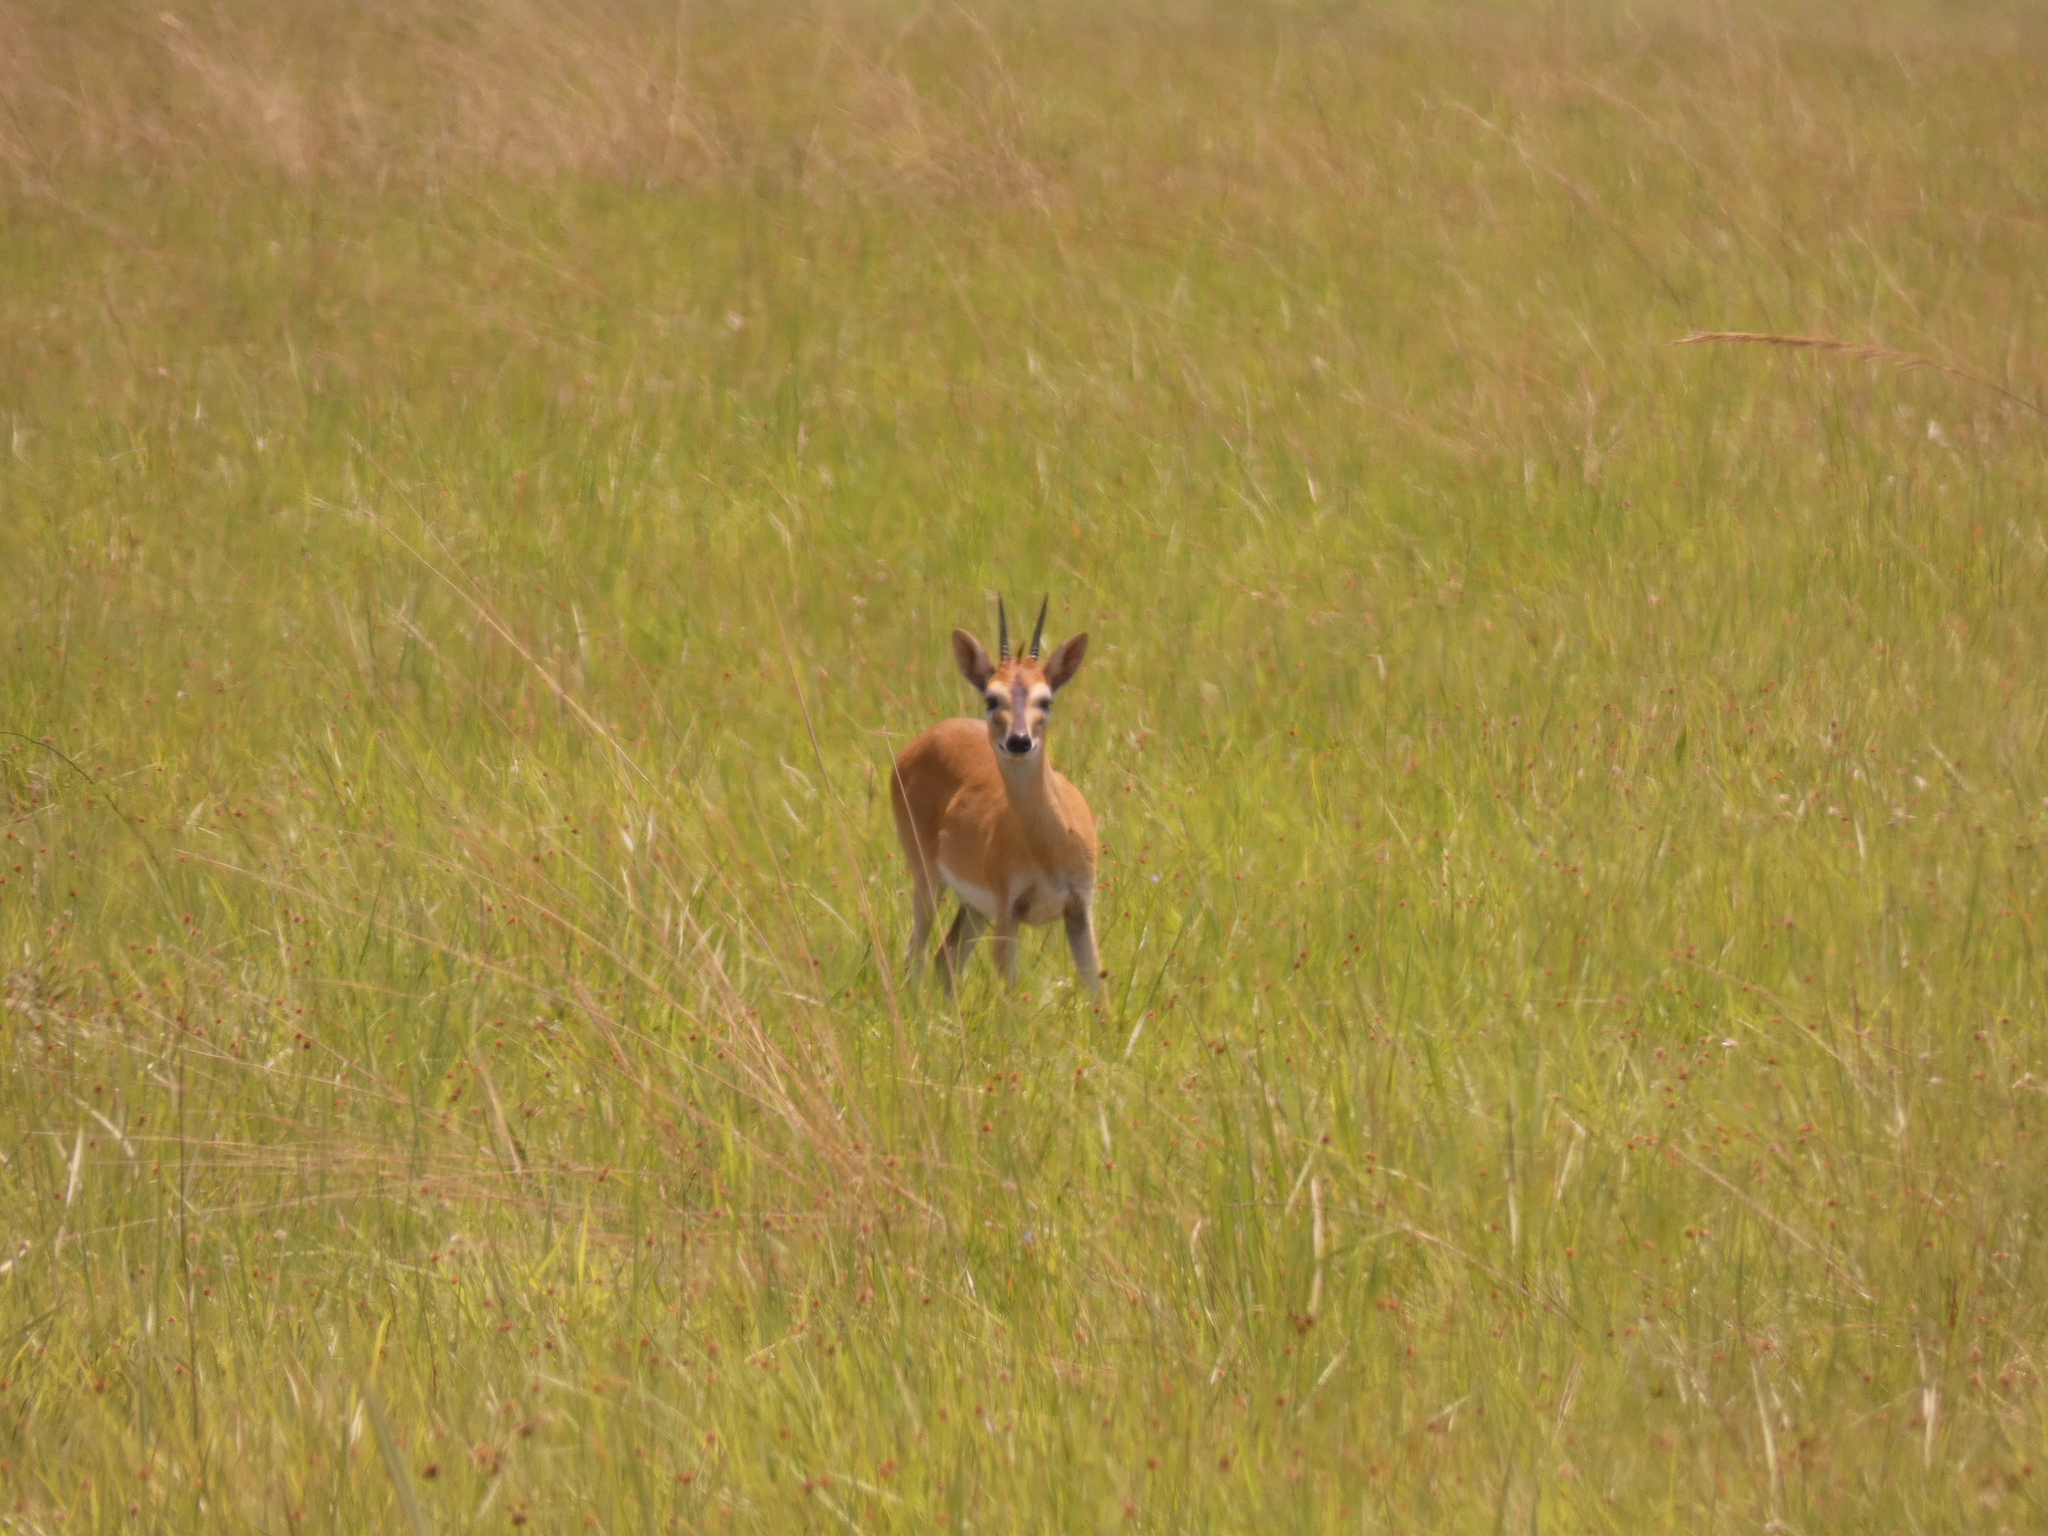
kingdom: Animalia
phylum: Chordata
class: Mammalia
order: Artiodactyla
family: Bovidae
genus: Sylvicapra
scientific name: Sylvicapra grimmia
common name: Bush duiker
